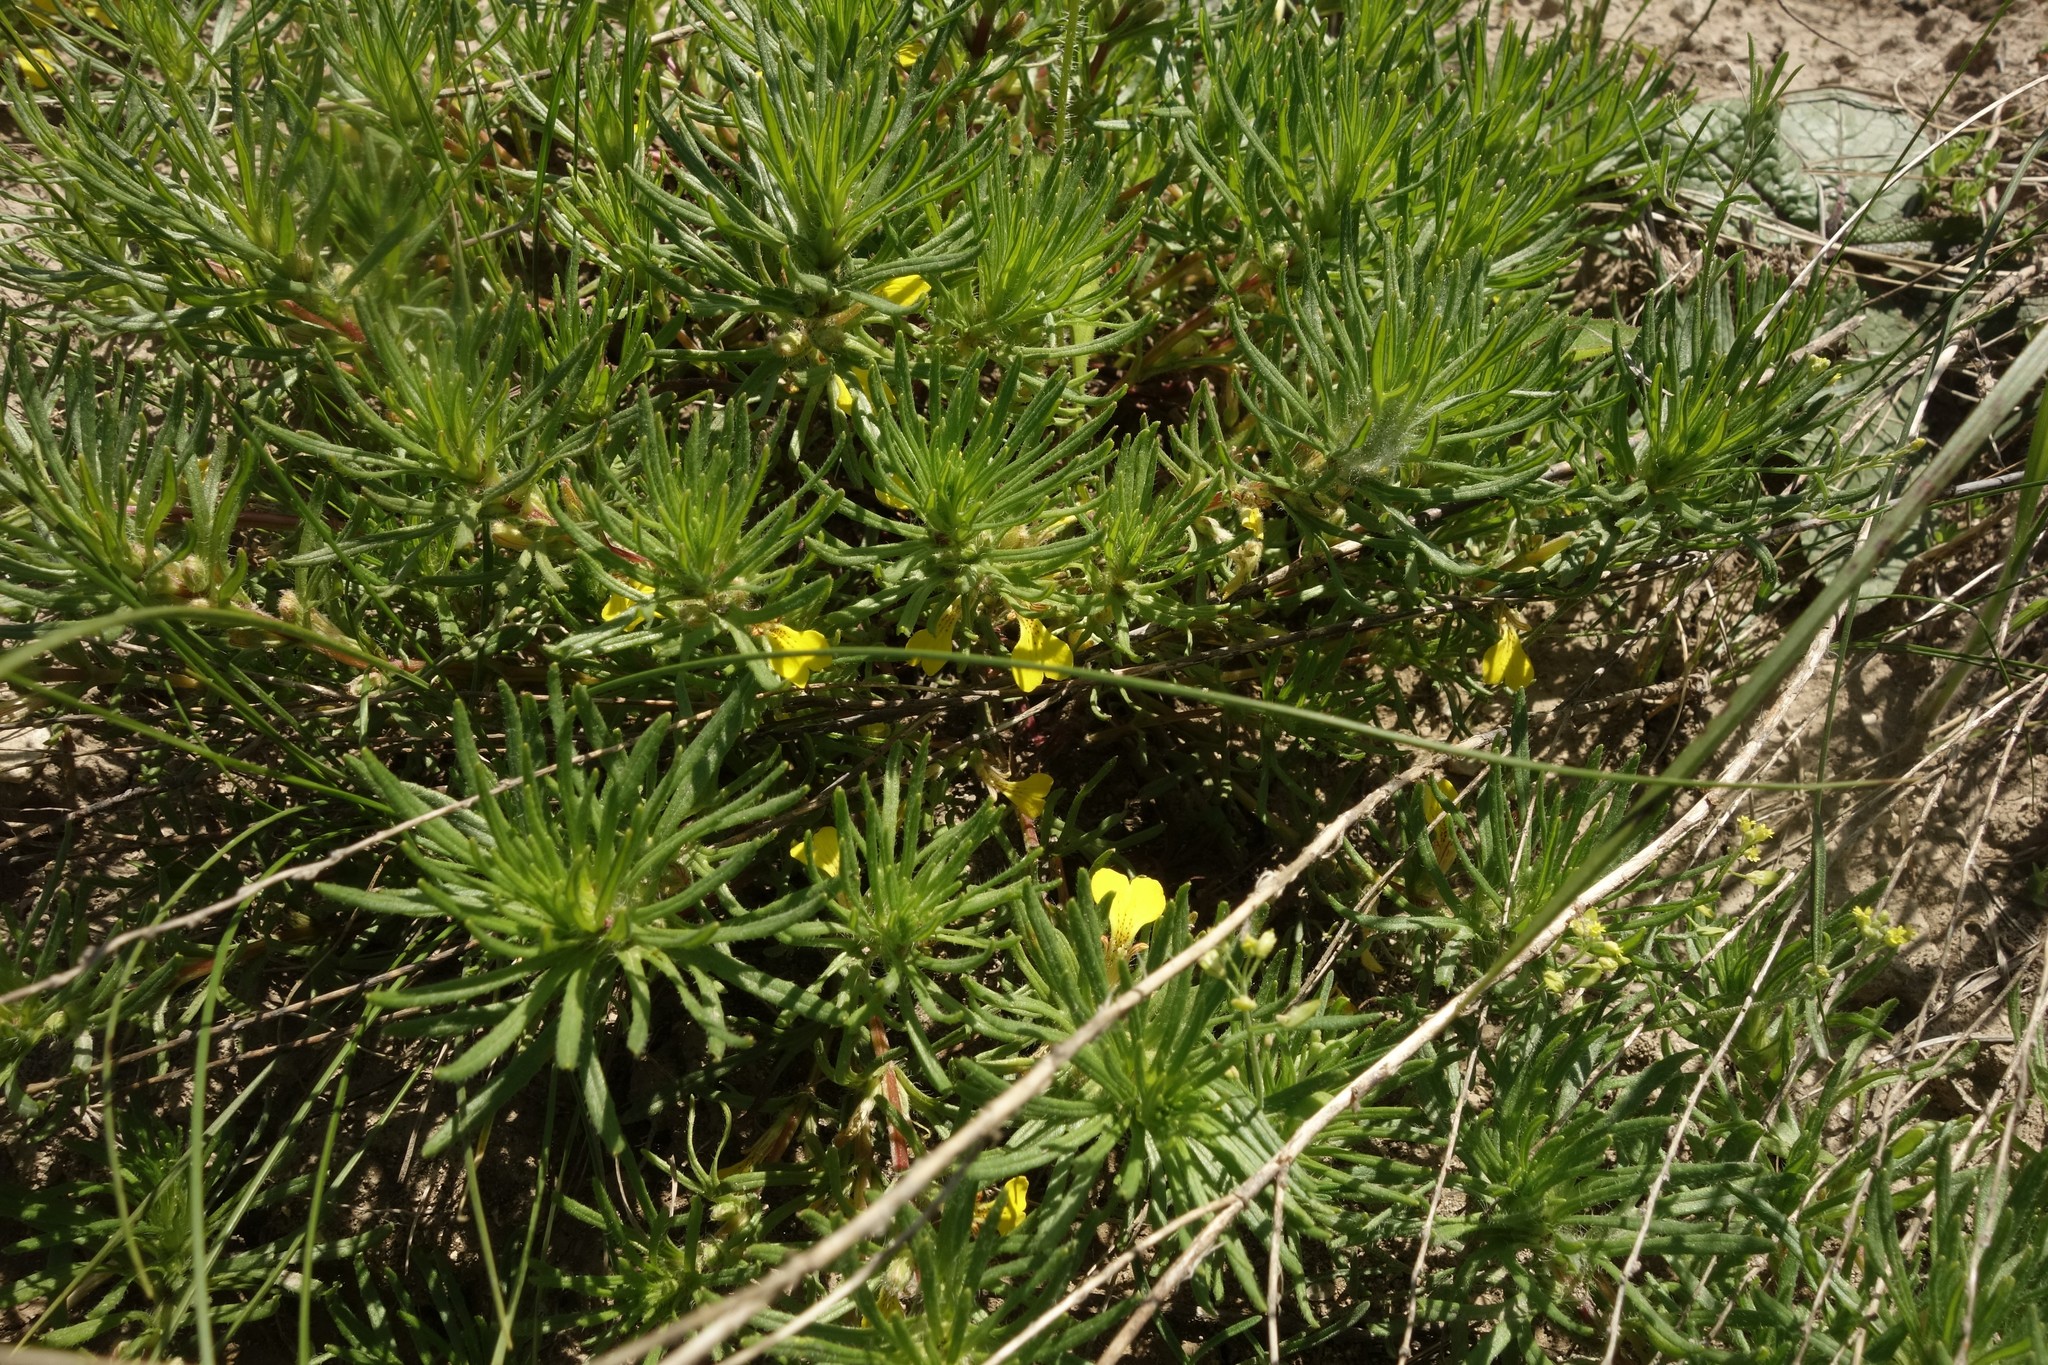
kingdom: Plantae
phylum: Tracheophyta
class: Magnoliopsida
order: Lamiales
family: Lamiaceae
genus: Ajuga
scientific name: Ajuga chamaepitys
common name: Ground-pine
